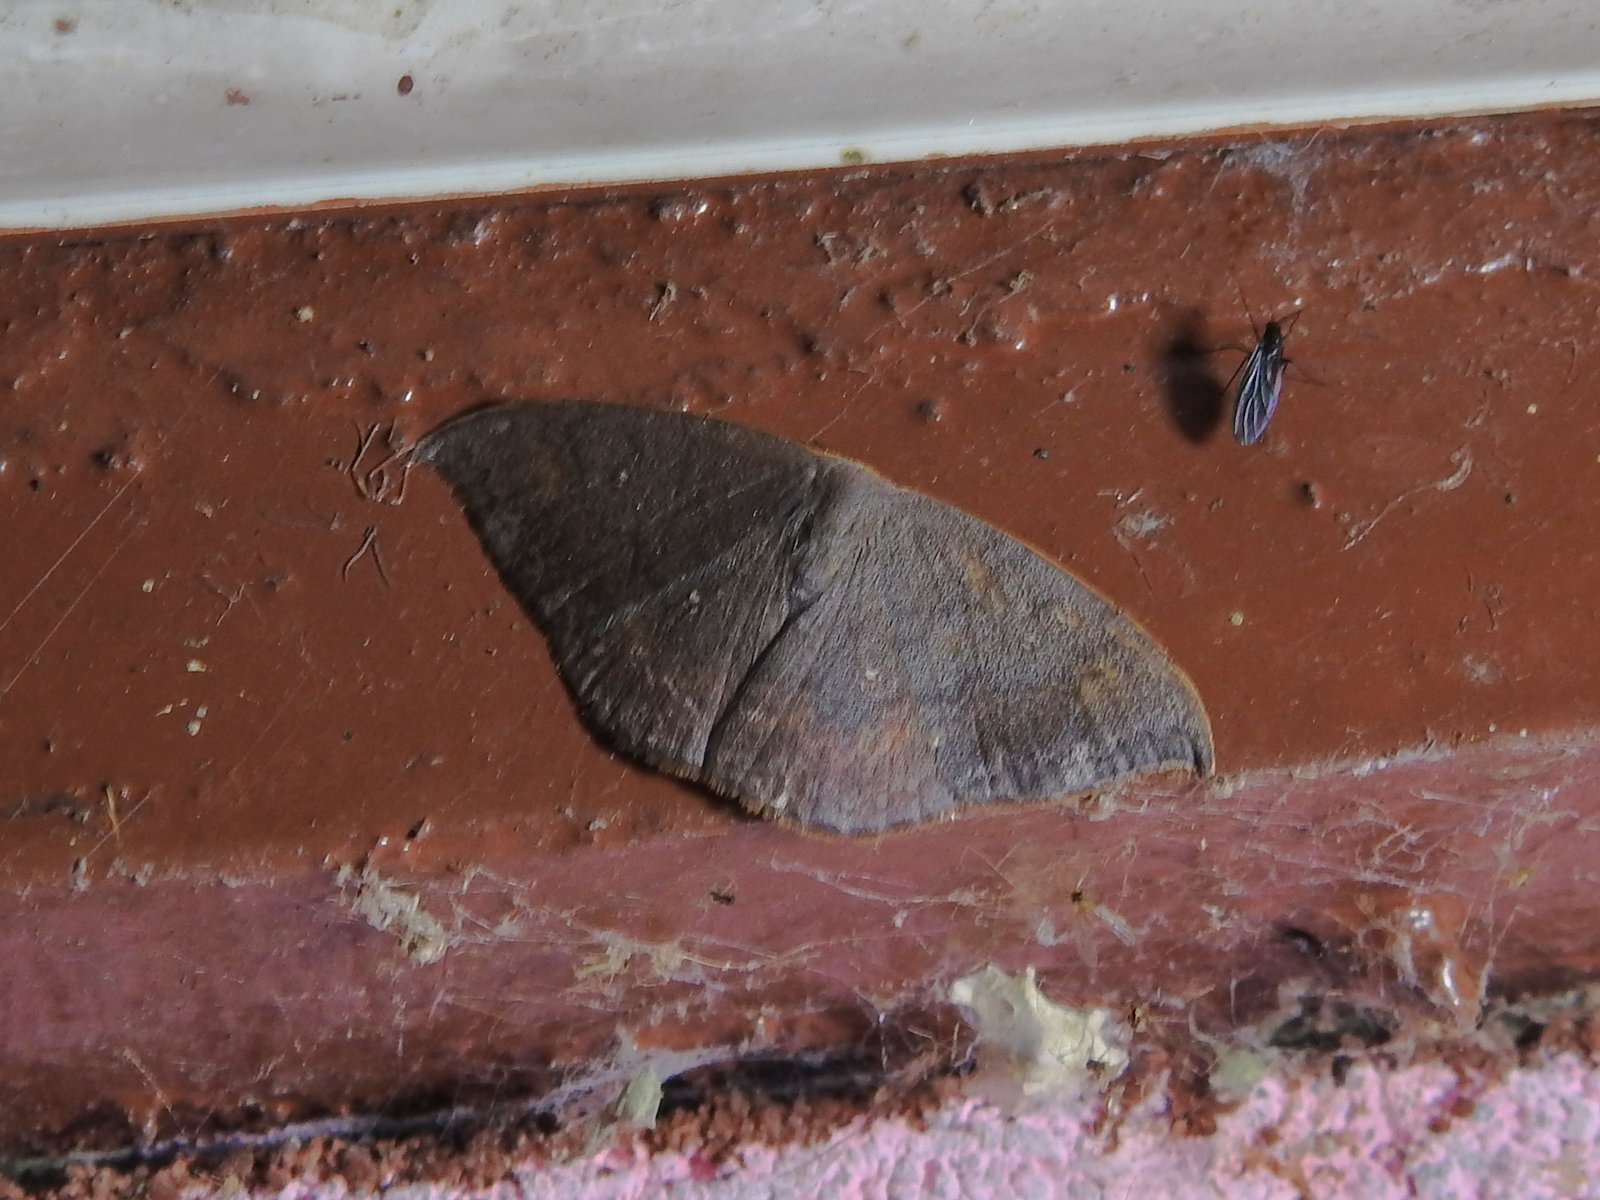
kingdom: Animalia
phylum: Arthropoda
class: Insecta
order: Lepidoptera
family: Drepanidae
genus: Paralbara
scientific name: Paralbara perhamata
